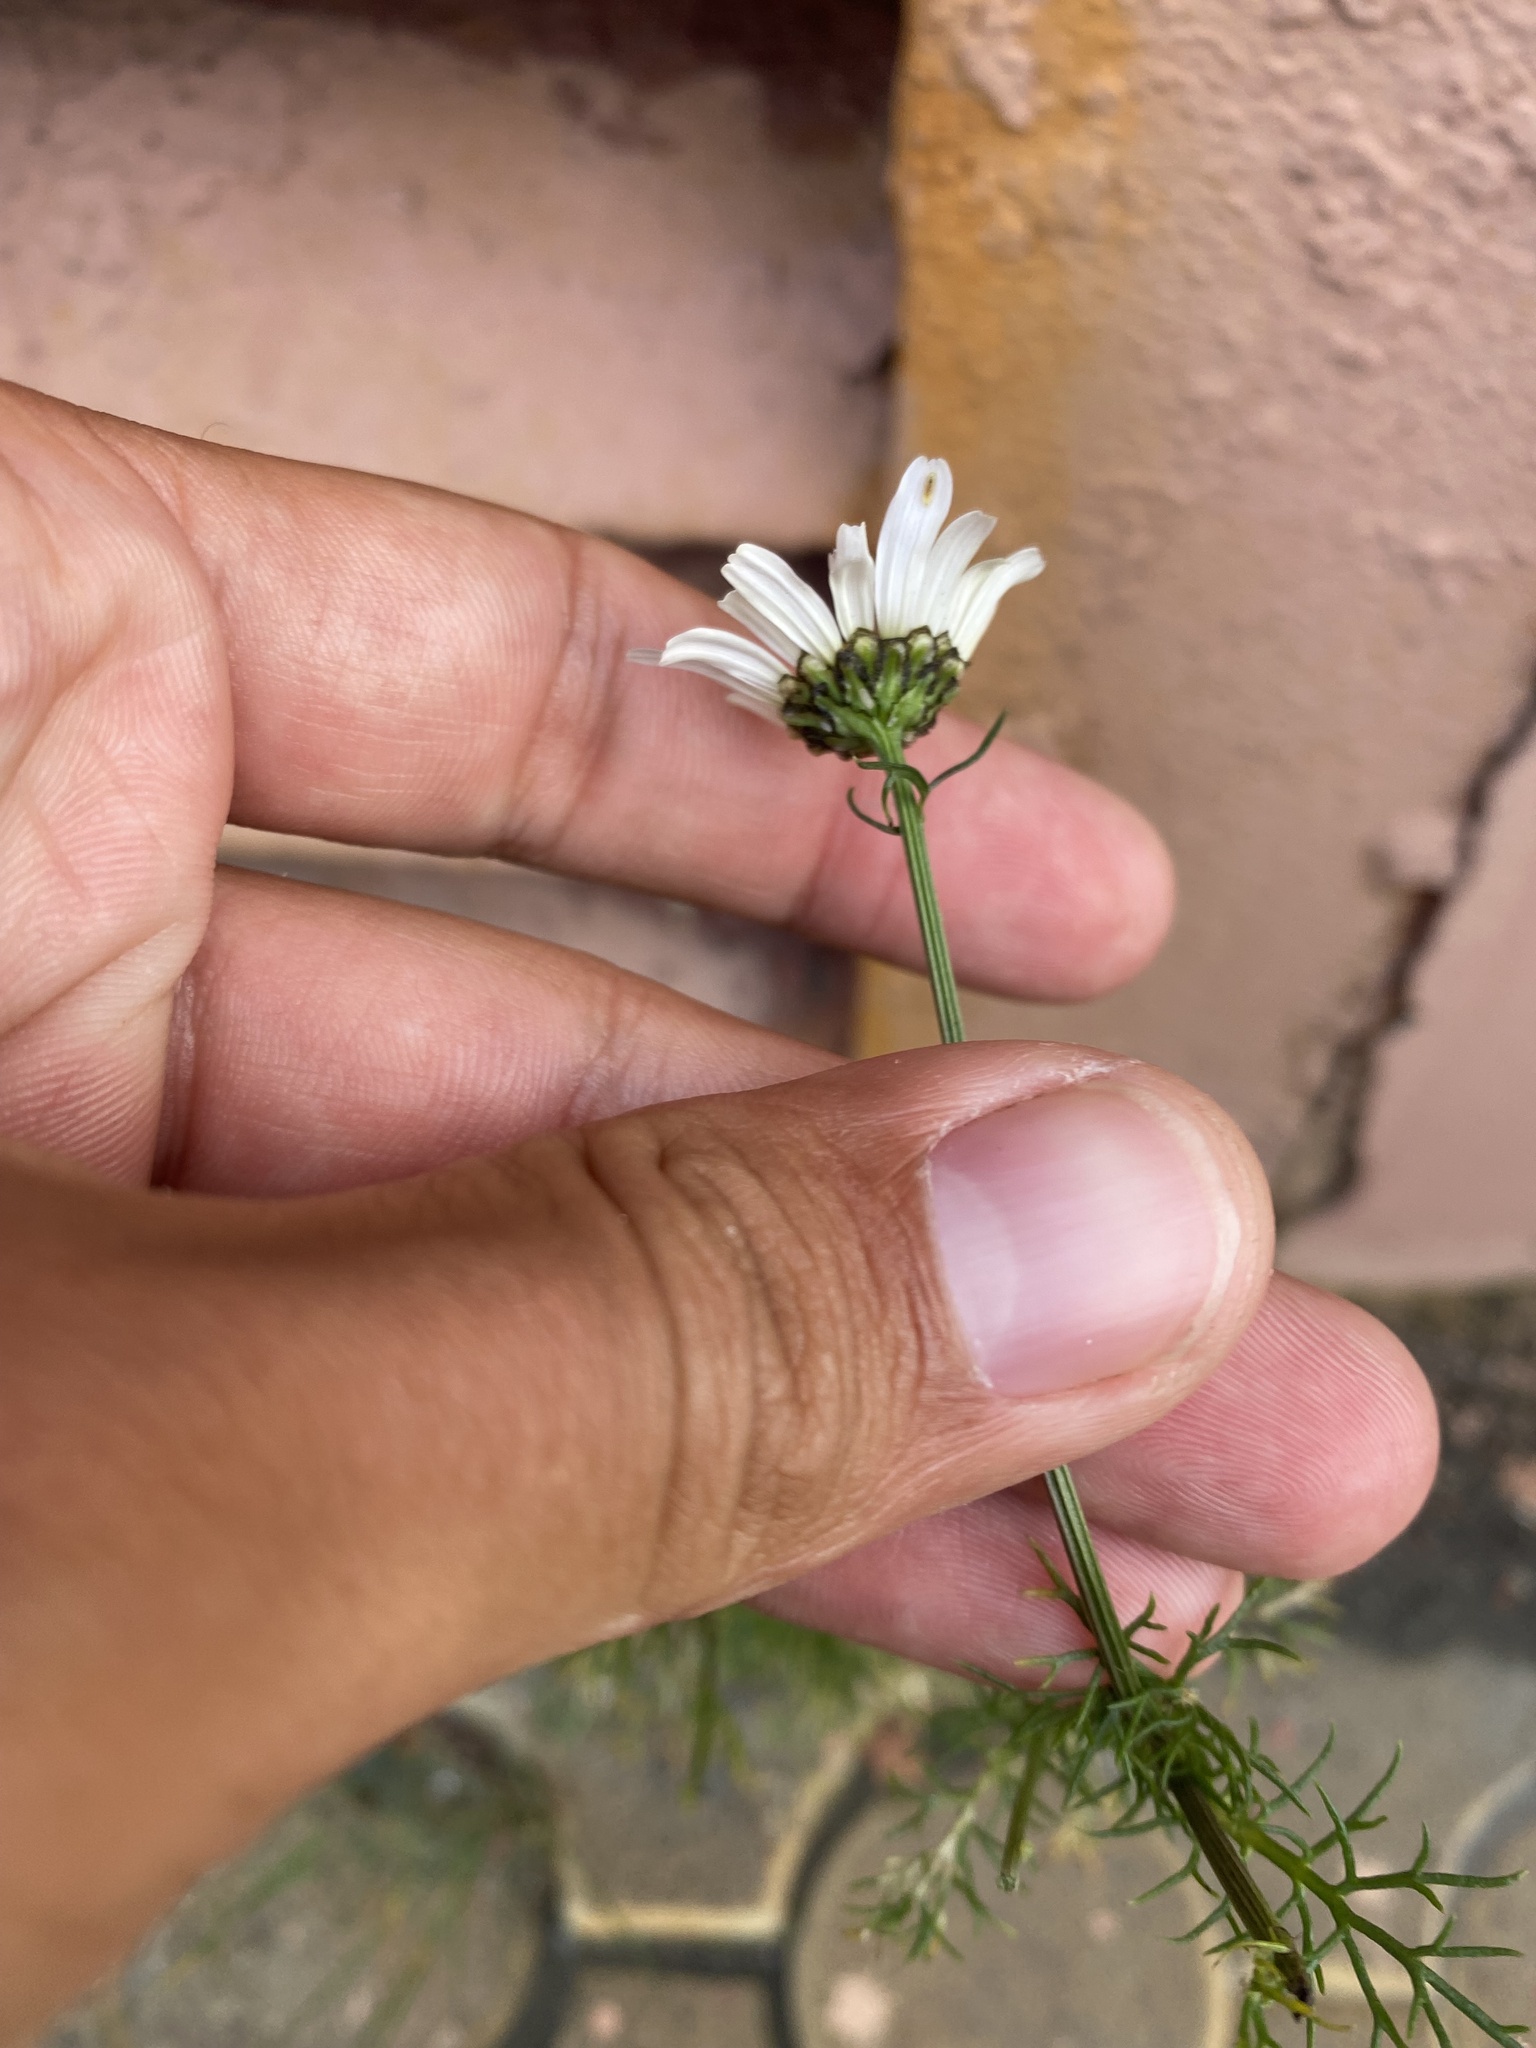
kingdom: Plantae
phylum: Tracheophyta
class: Magnoliopsida
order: Asterales
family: Asteraceae
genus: Tripleurospermum
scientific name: Tripleurospermum hookeri
